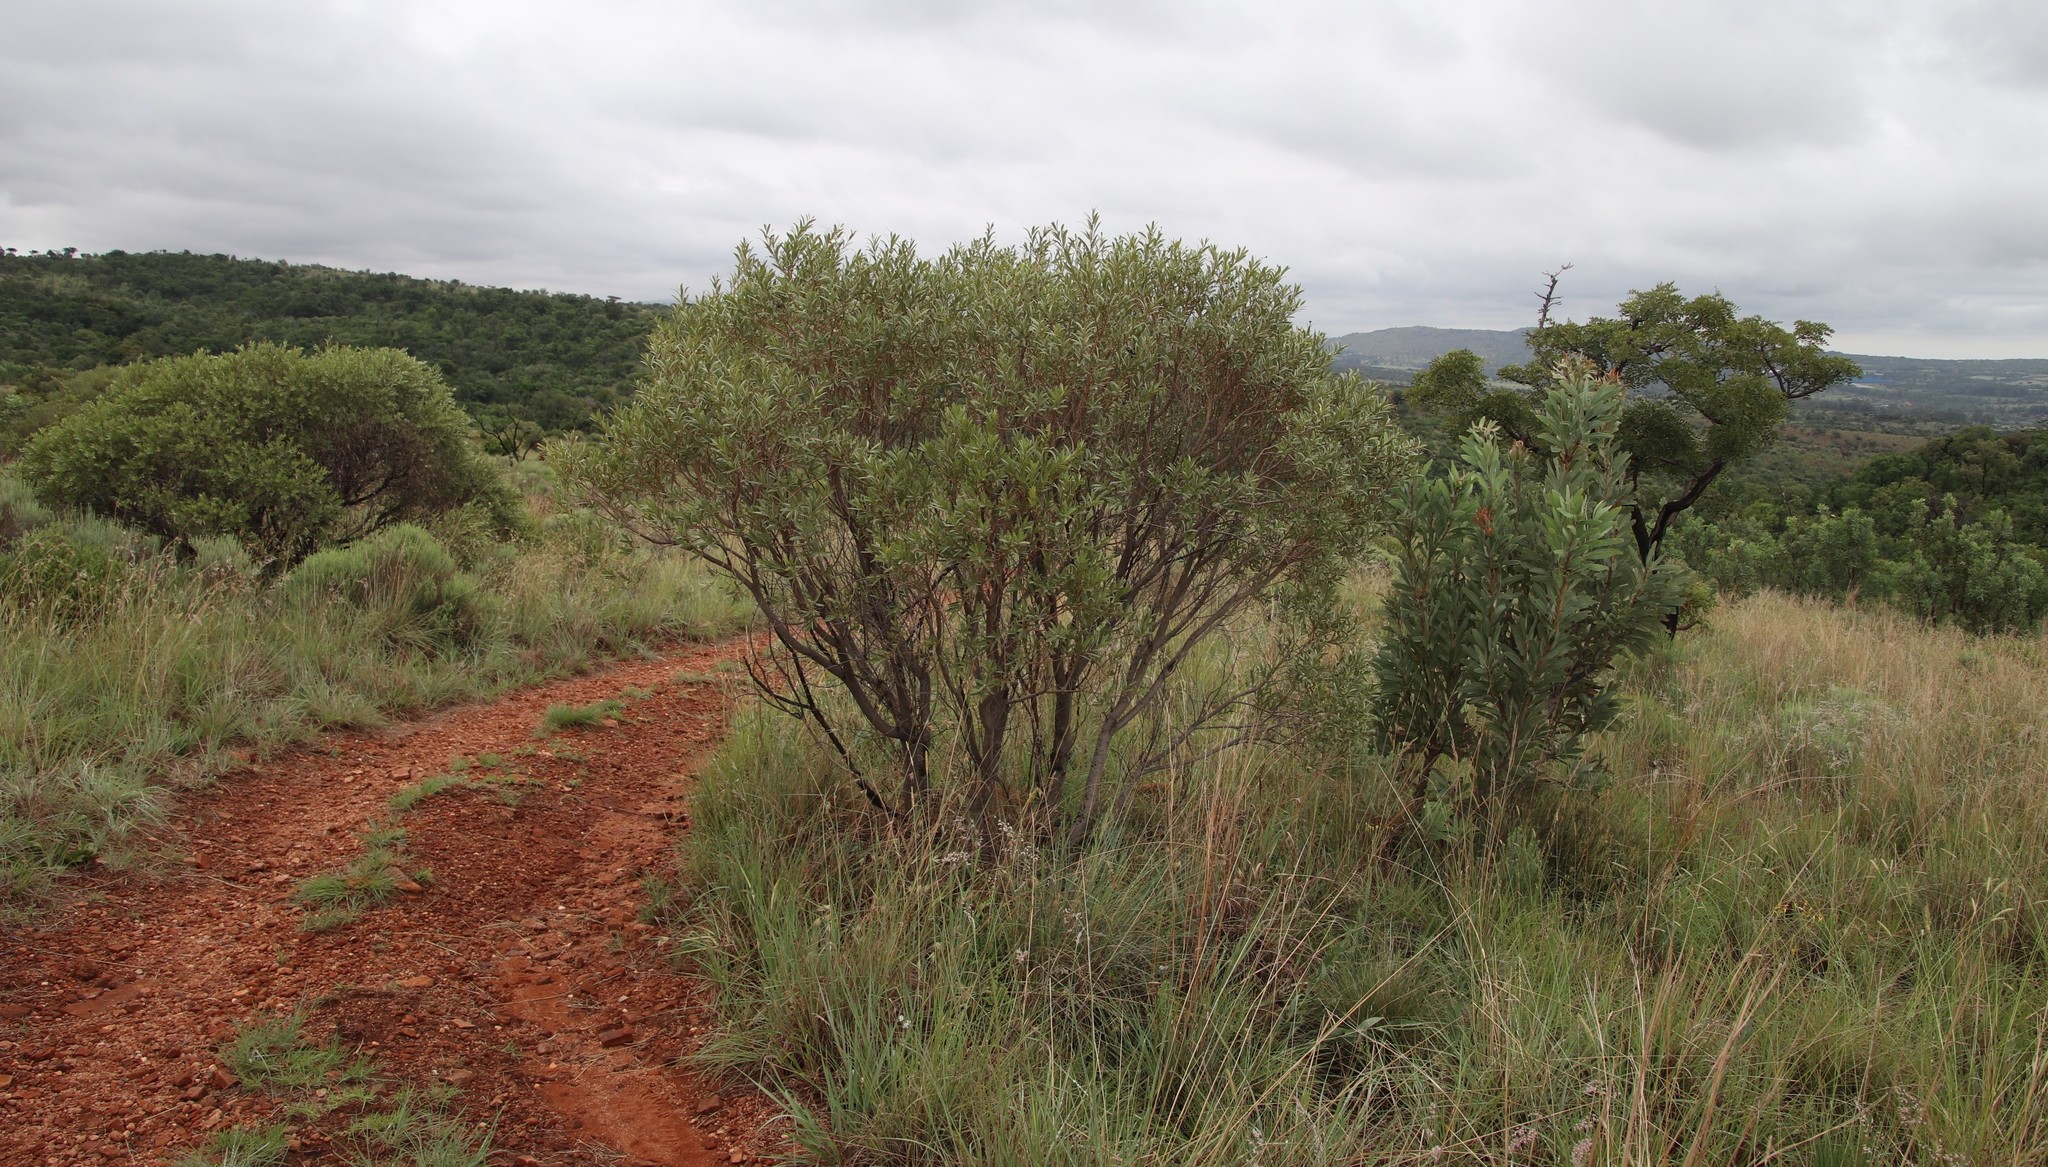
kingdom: Plantae
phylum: Tracheophyta
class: Magnoliopsida
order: Sapindales
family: Anacardiaceae
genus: Ozoroa
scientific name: Ozoroa paniculosa
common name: Bushveld ozoroa
